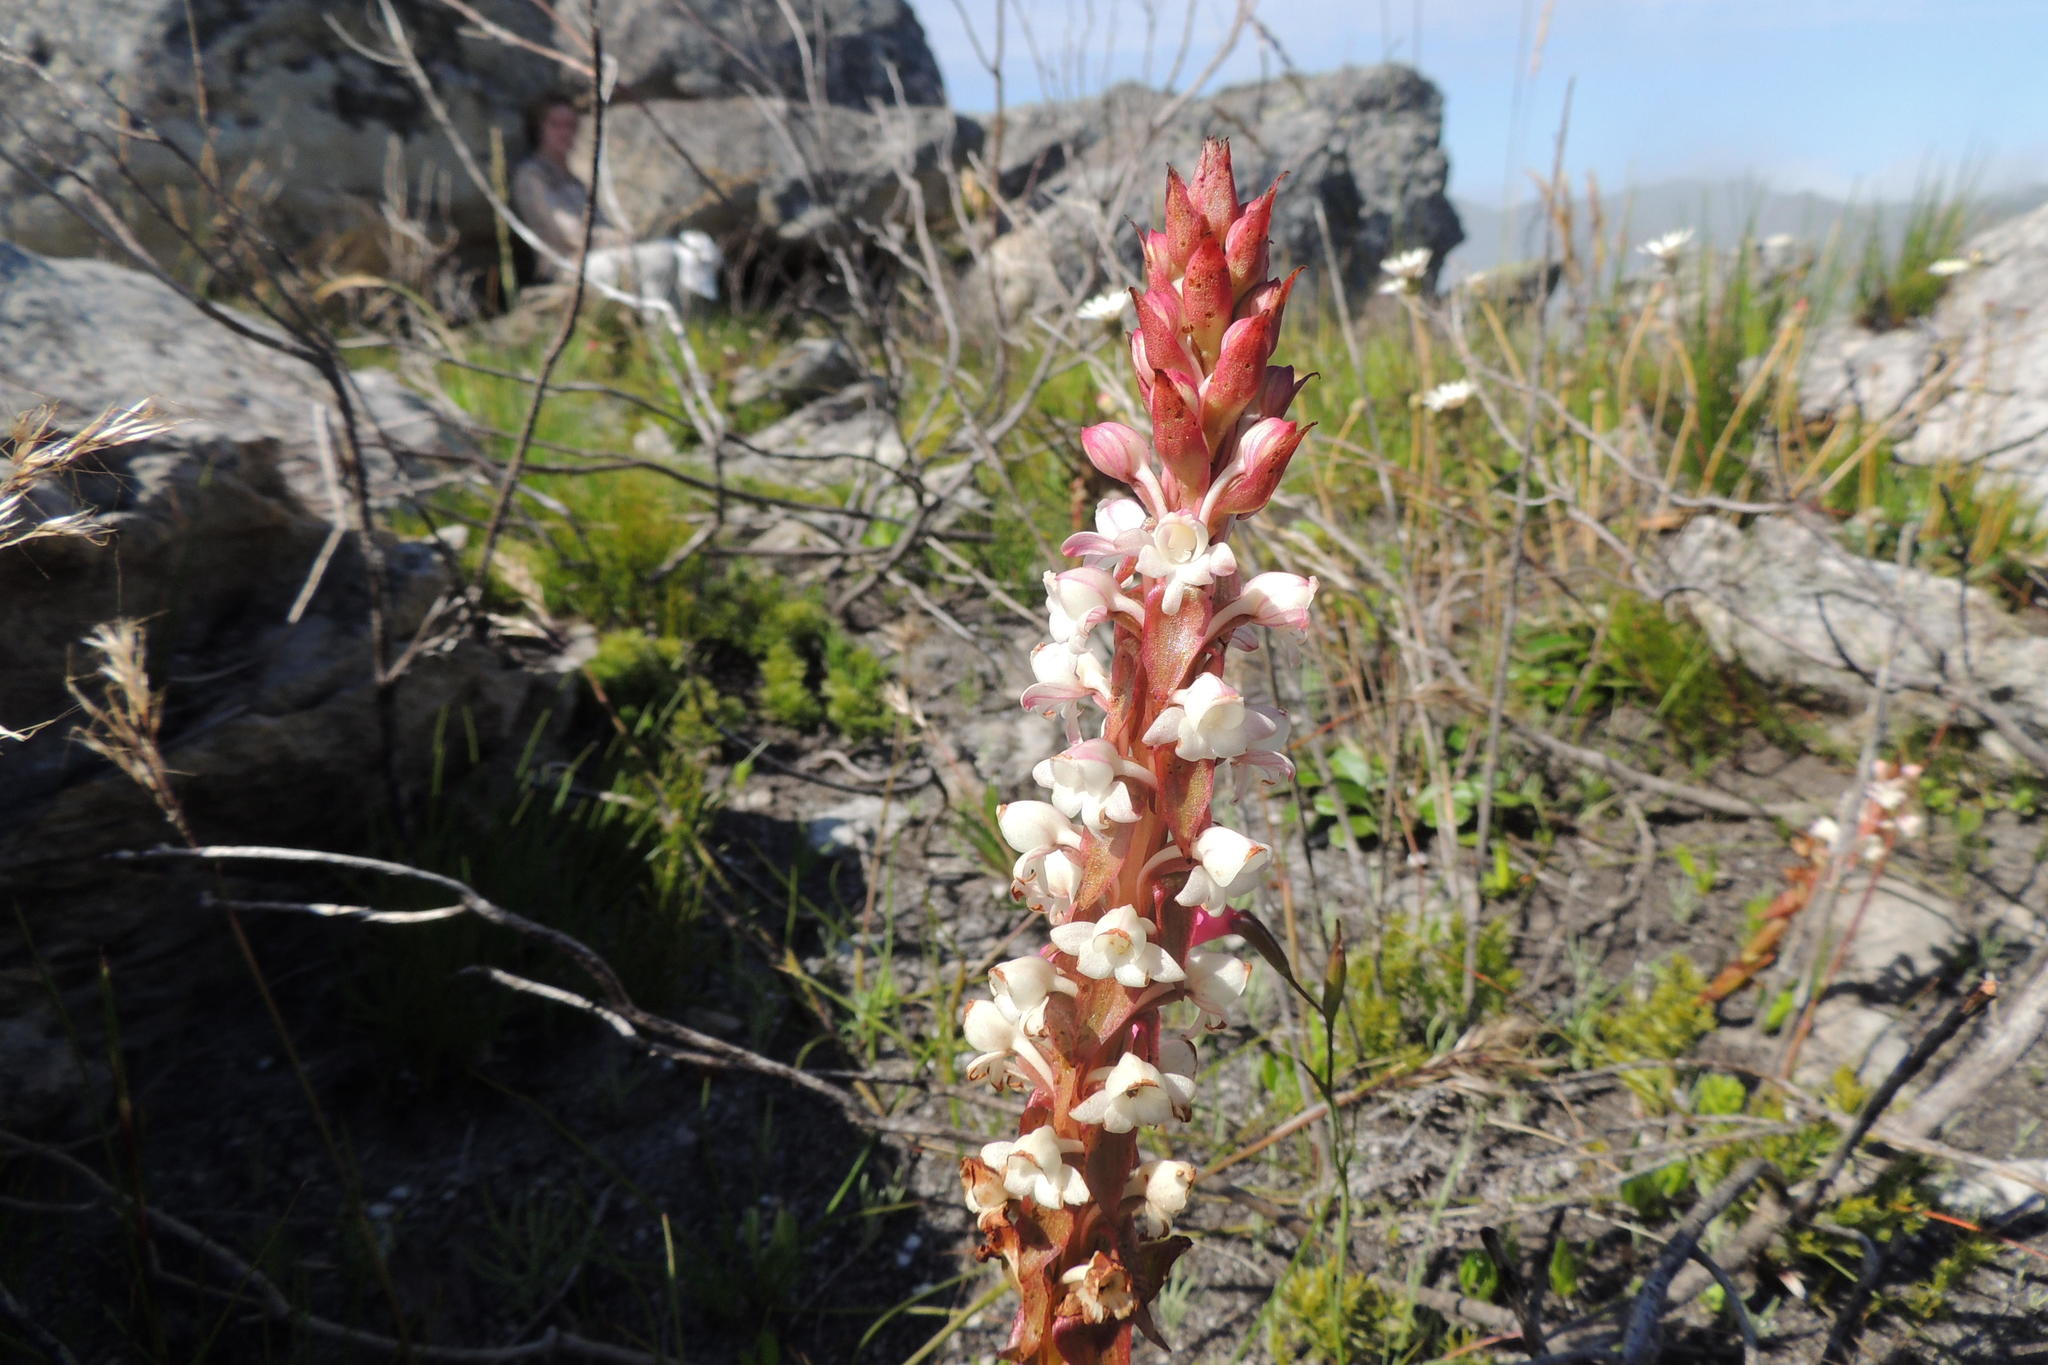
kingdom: Plantae
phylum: Tracheophyta
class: Liliopsida
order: Asparagales
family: Orchidaceae
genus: Satyrium
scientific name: Satyrium acuminatum
